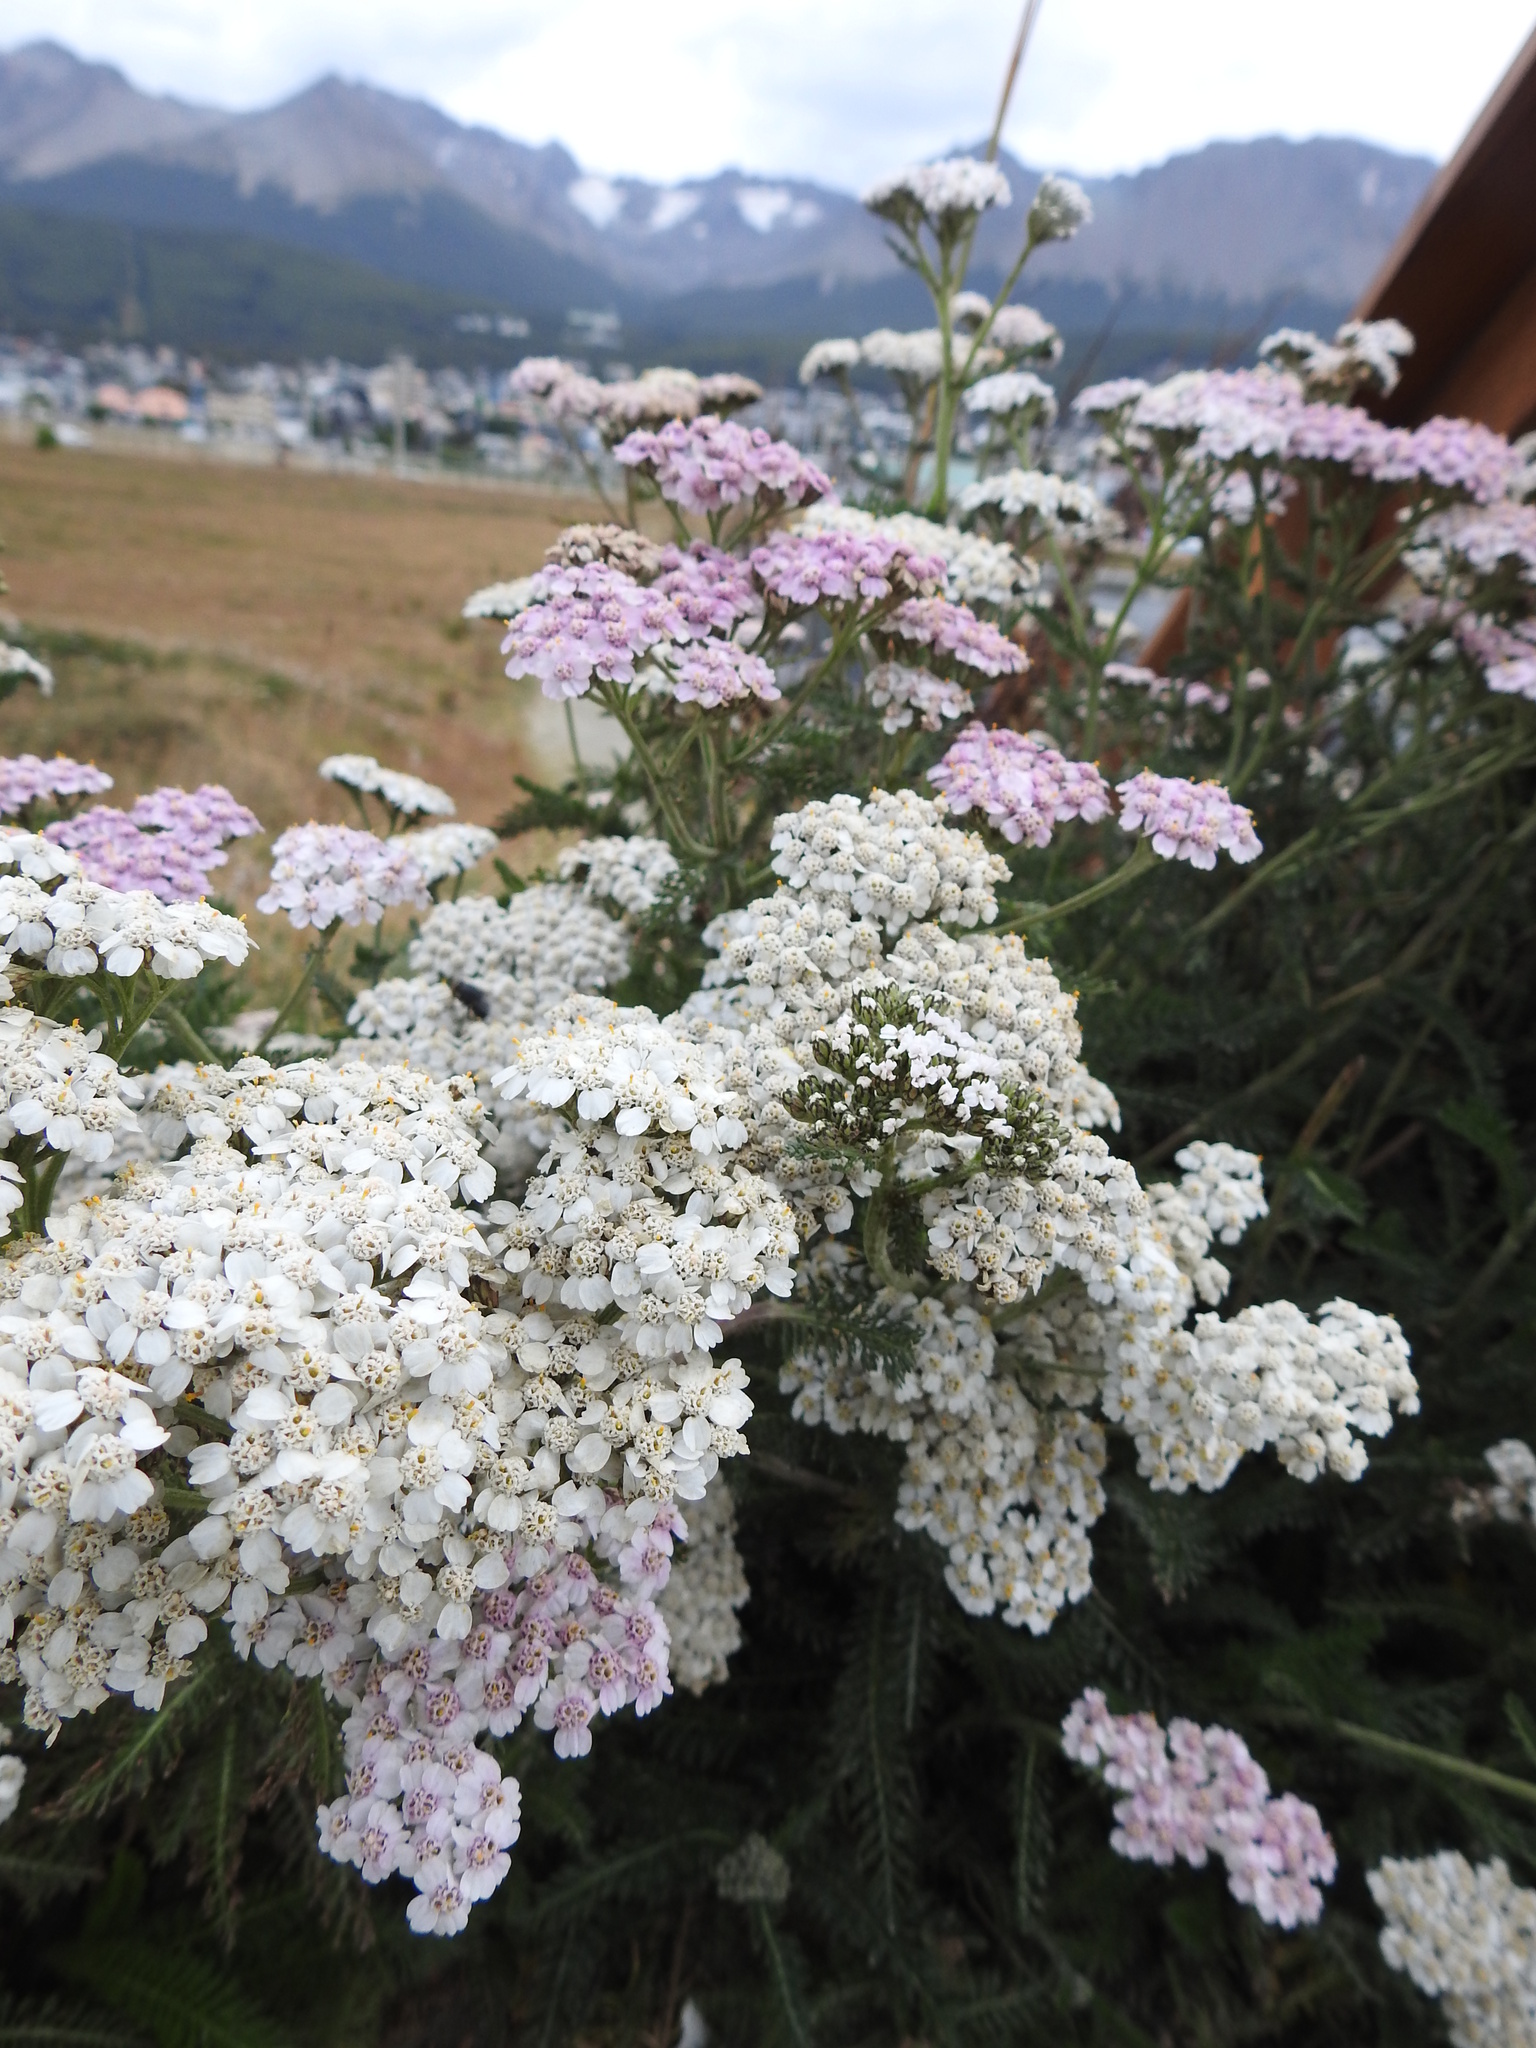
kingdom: Plantae
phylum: Tracheophyta
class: Magnoliopsida
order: Asterales
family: Asteraceae
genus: Achillea
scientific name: Achillea millefolium
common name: Yarrow
